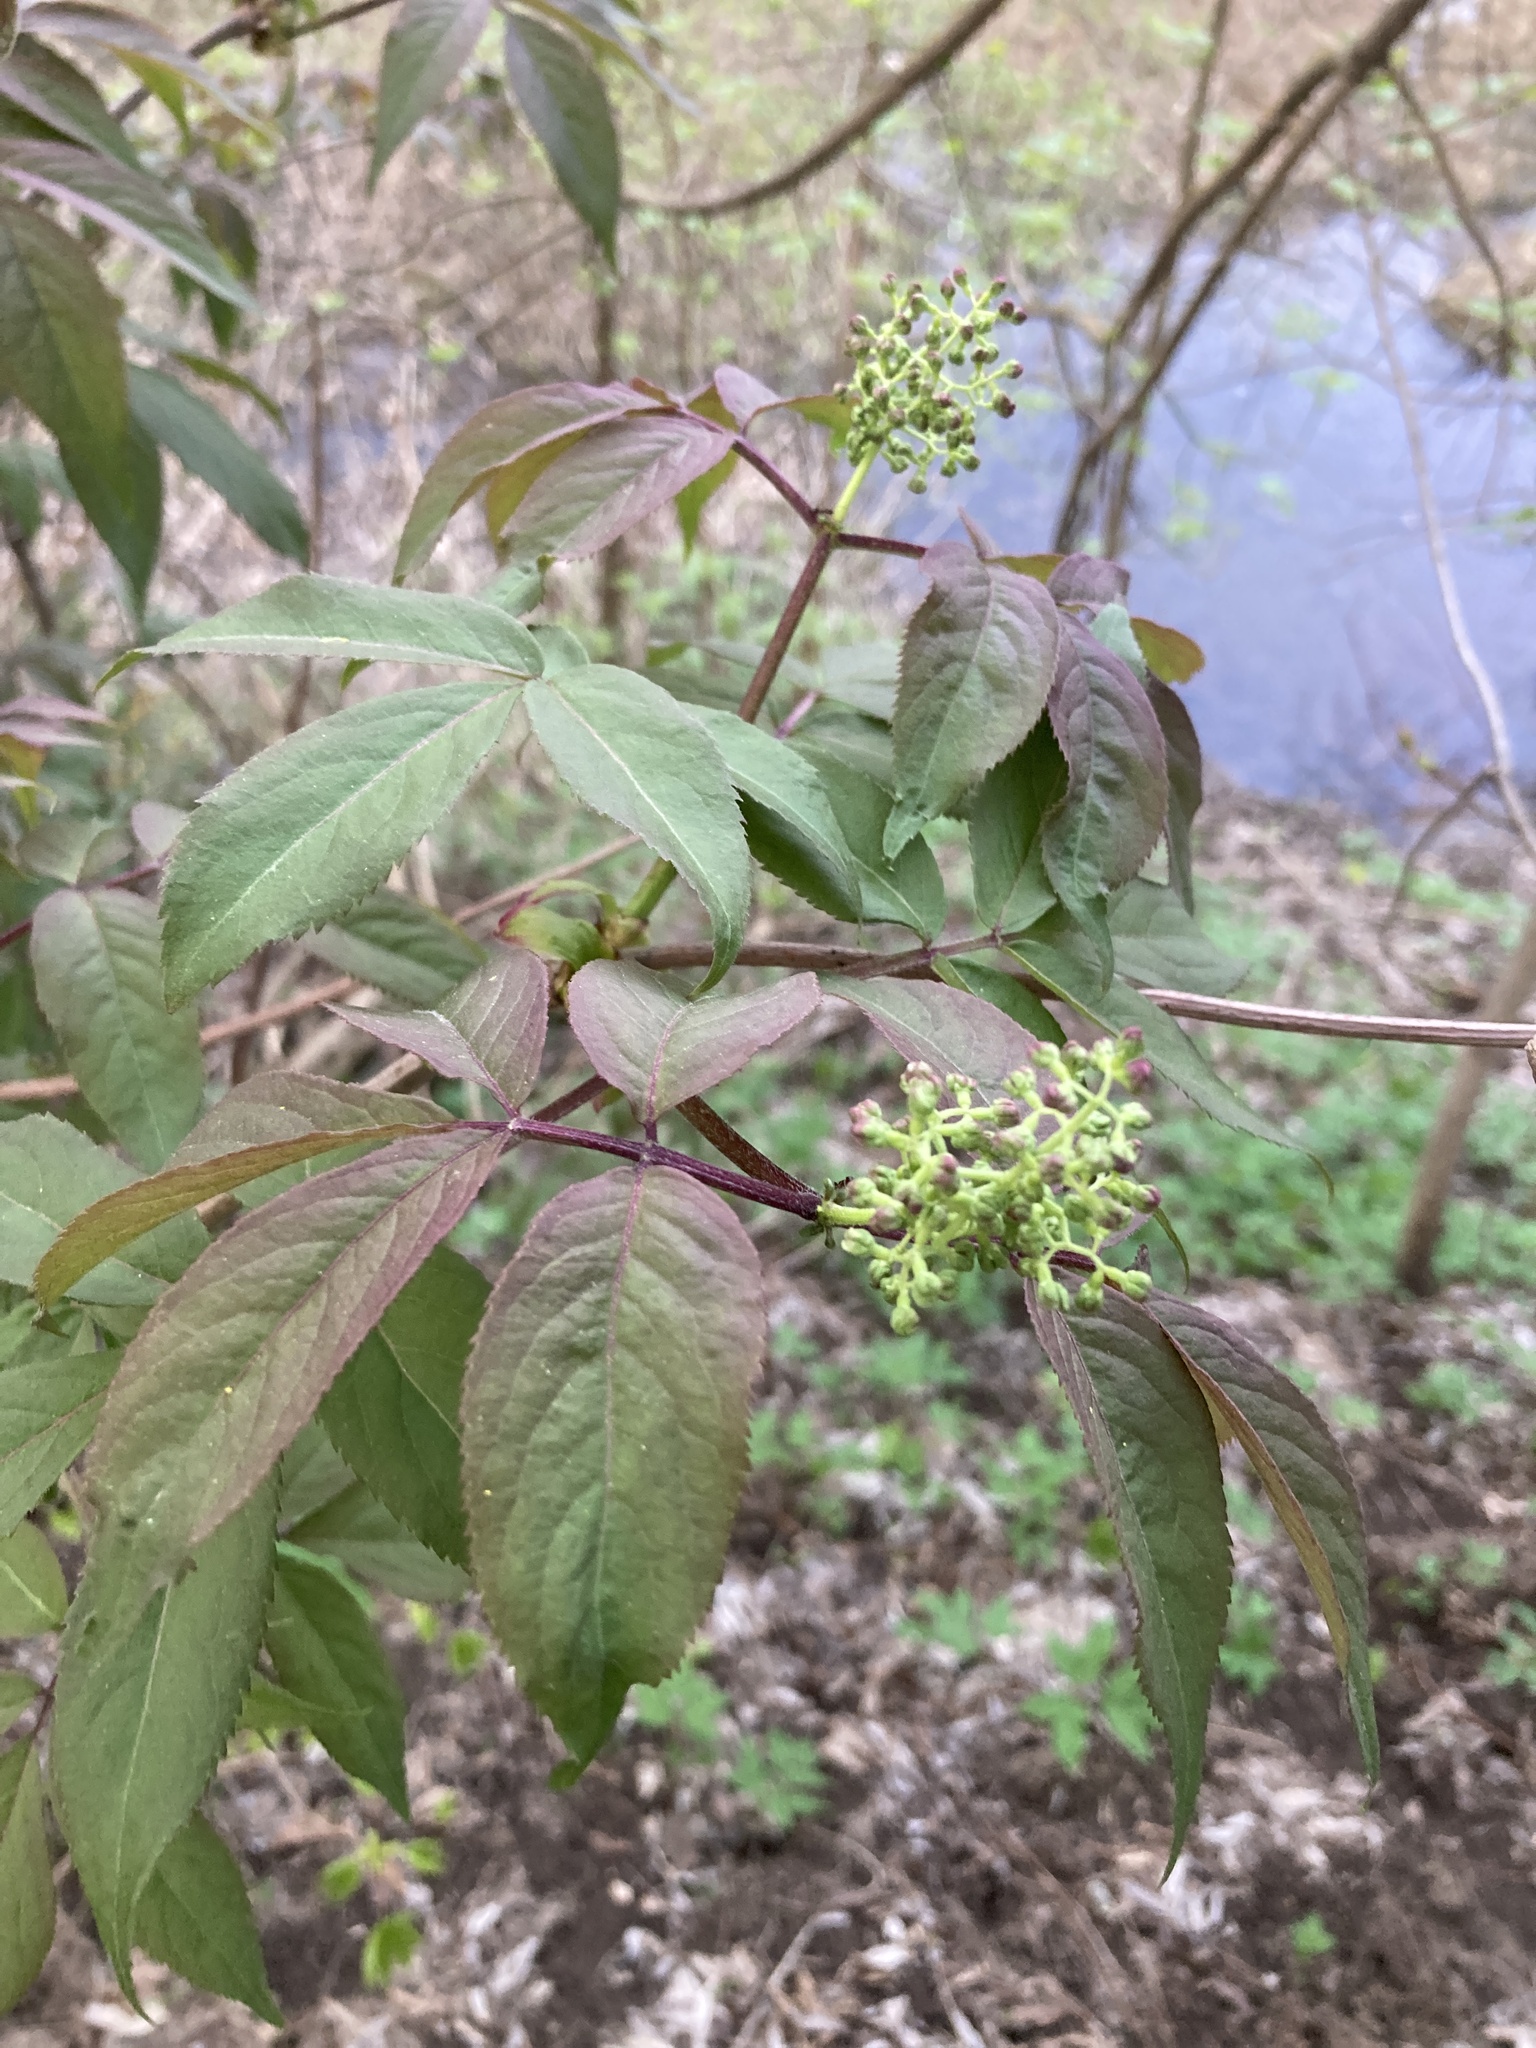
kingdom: Plantae
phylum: Tracheophyta
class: Magnoliopsida
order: Dipsacales
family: Viburnaceae
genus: Sambucus
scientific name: Sambucus racemosa
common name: Red-berried elder
